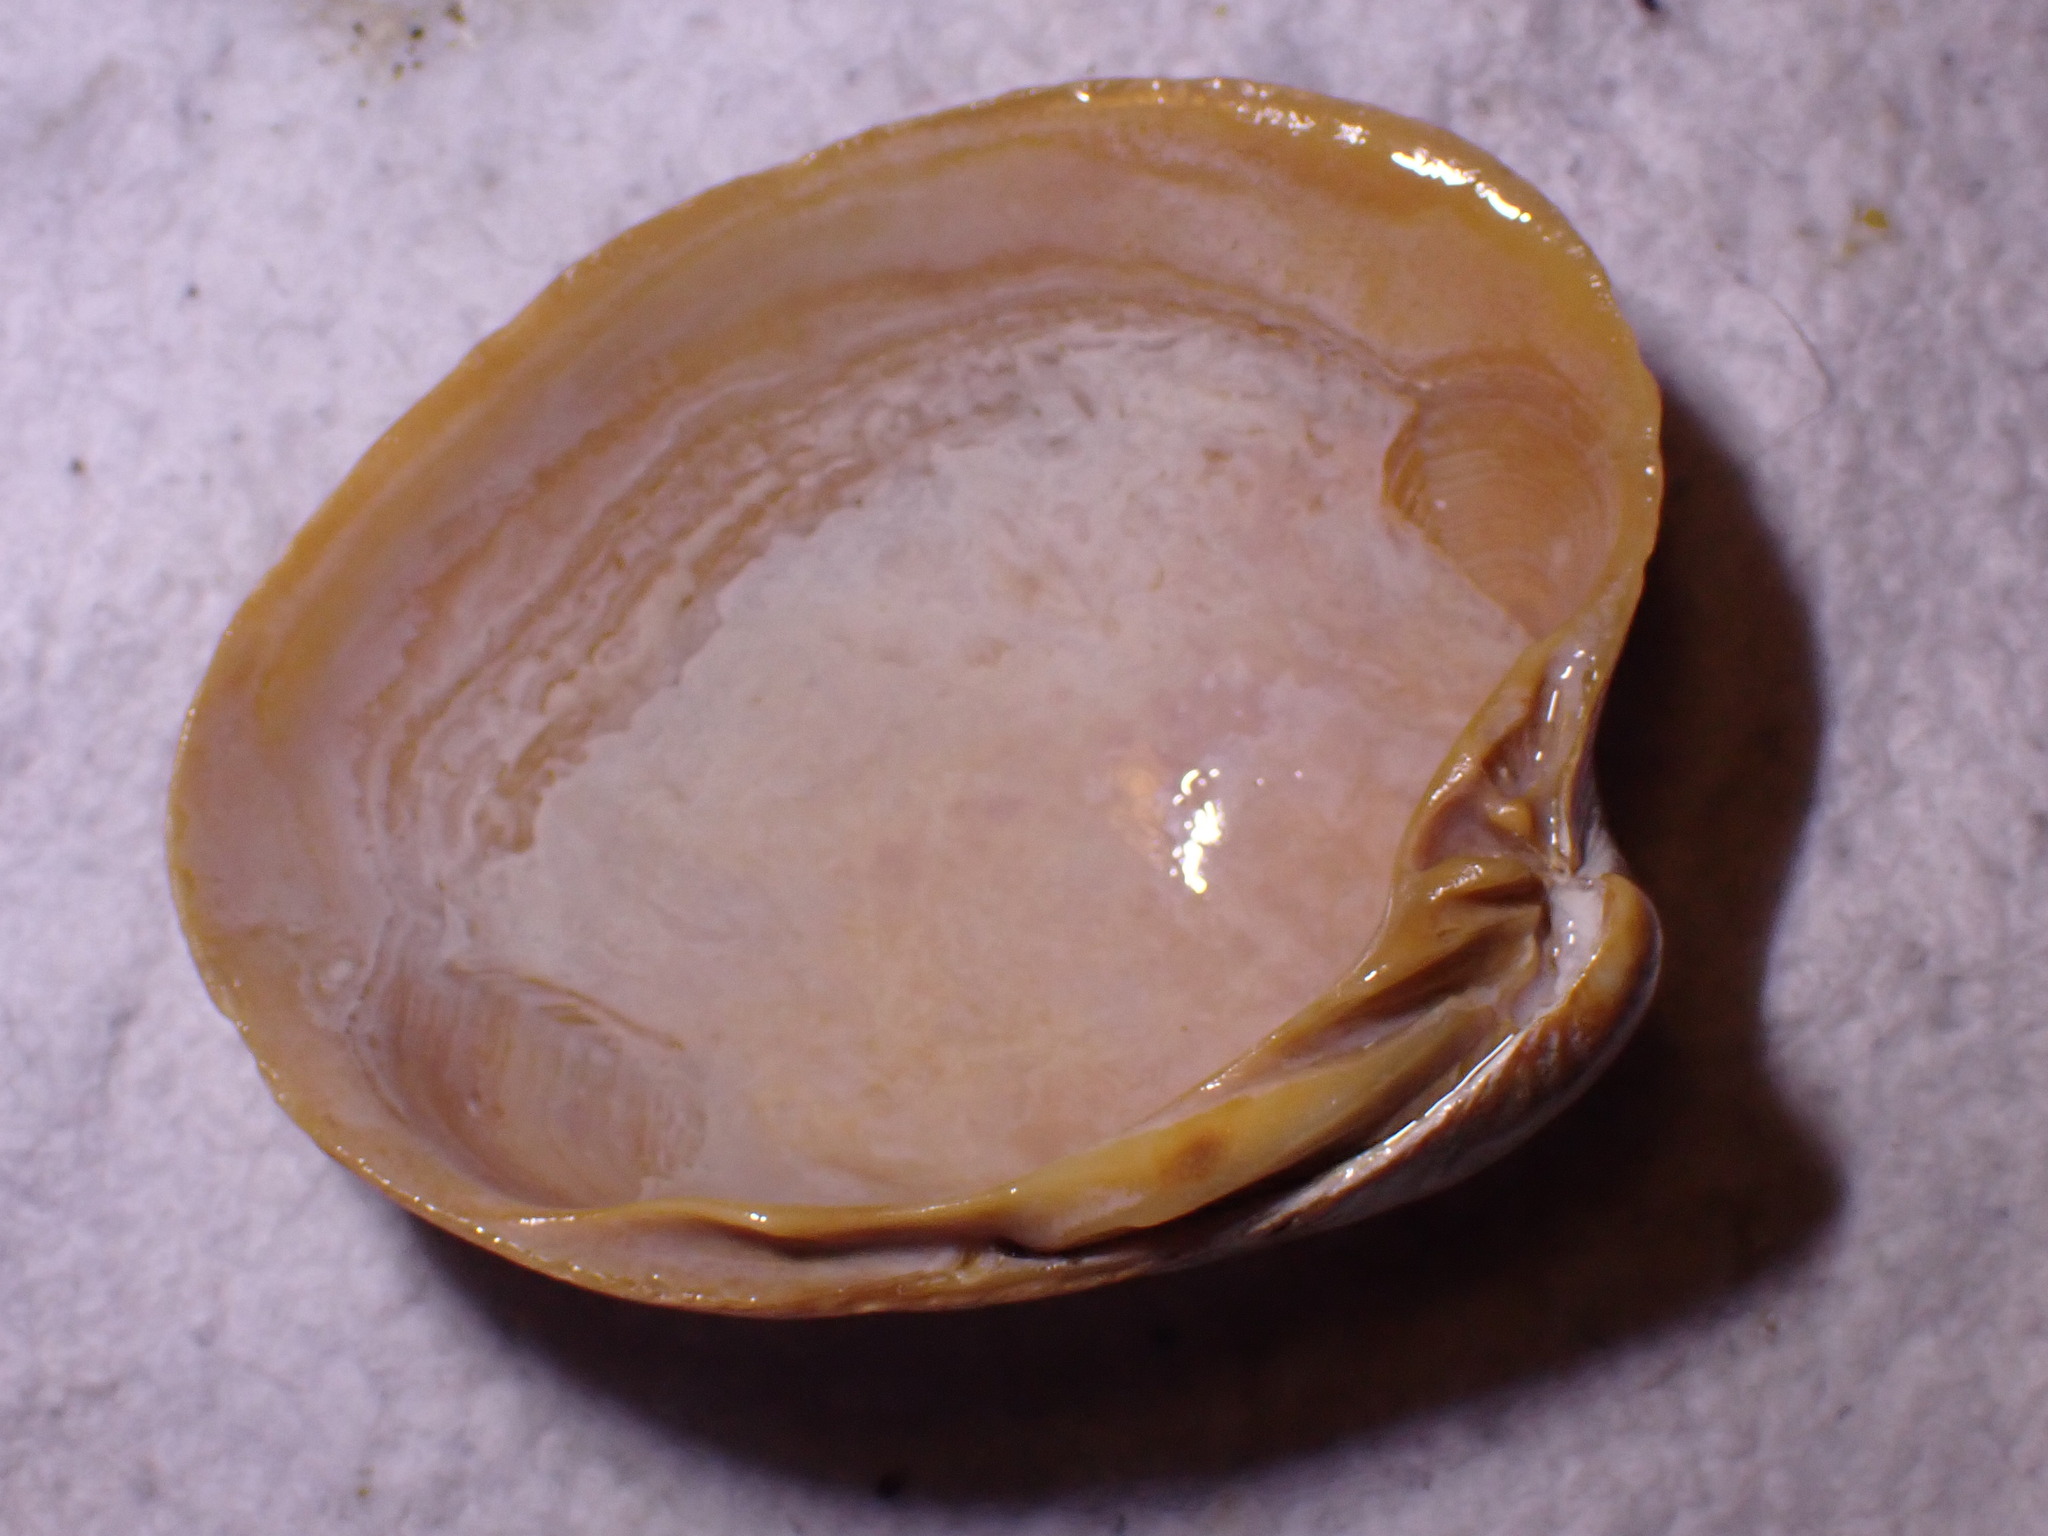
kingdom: Animalia
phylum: Mollusca
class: Bivalvia
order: Venerida
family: Arcticidae
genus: Arctica
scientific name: Arctica islandica
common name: Icelandic cyprine
